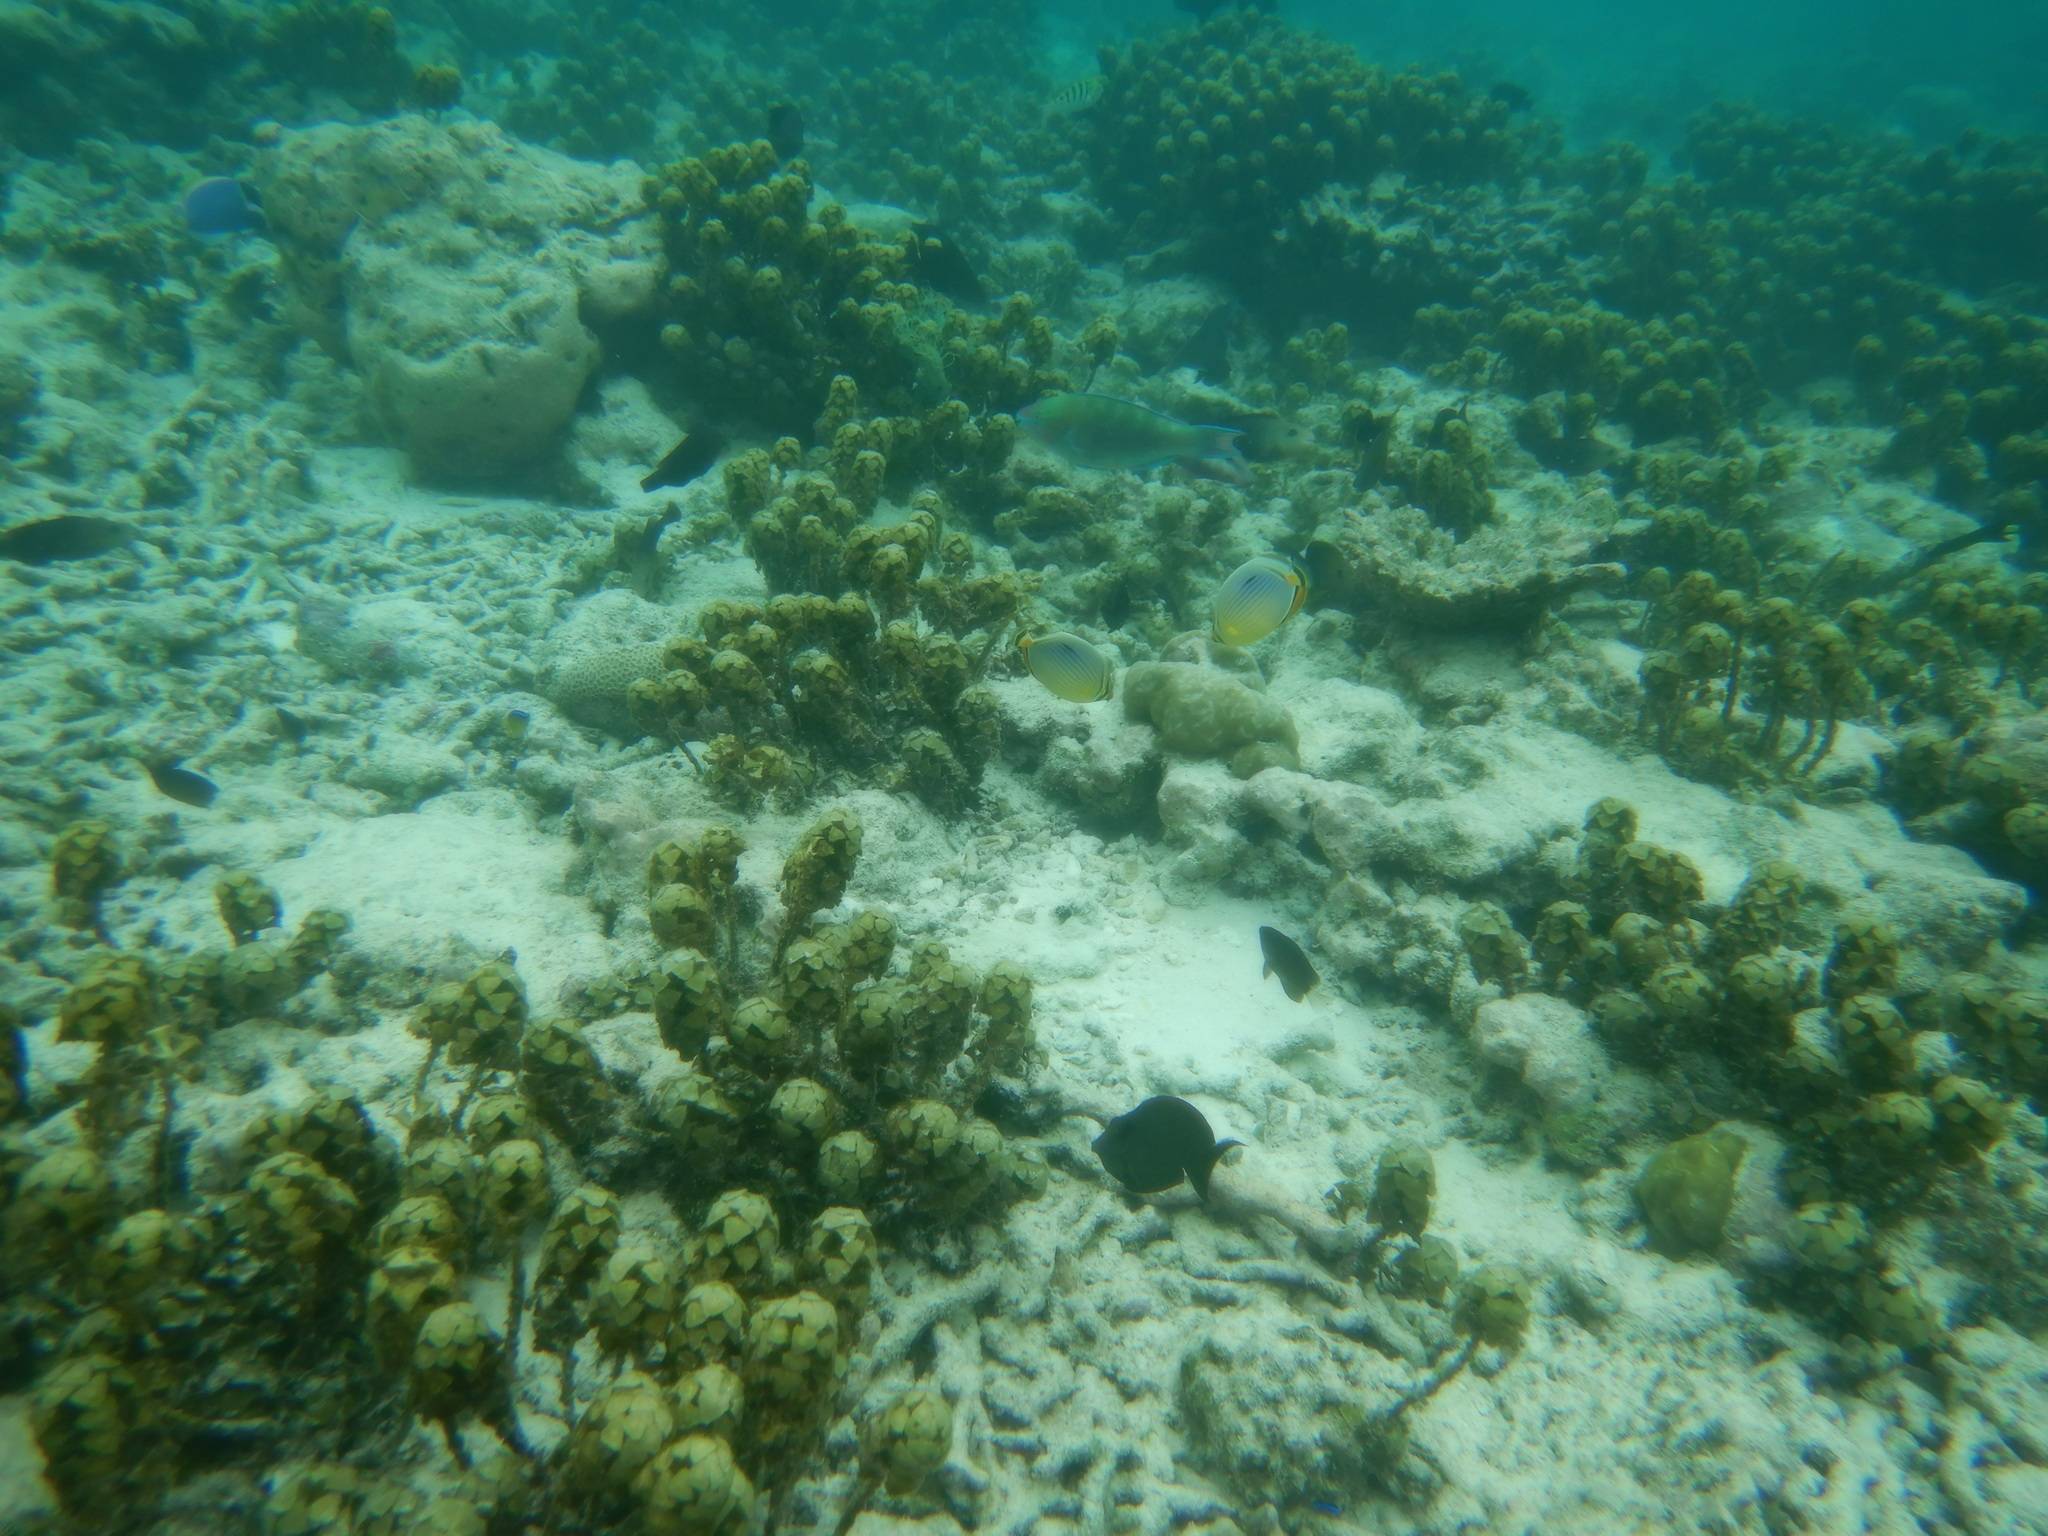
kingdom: Animalia
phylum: Chordata
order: Perciformes
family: Chaetodontidae
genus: Chaetodon
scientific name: Chaetodon trifasciatus
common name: Redfin butterflyfish
